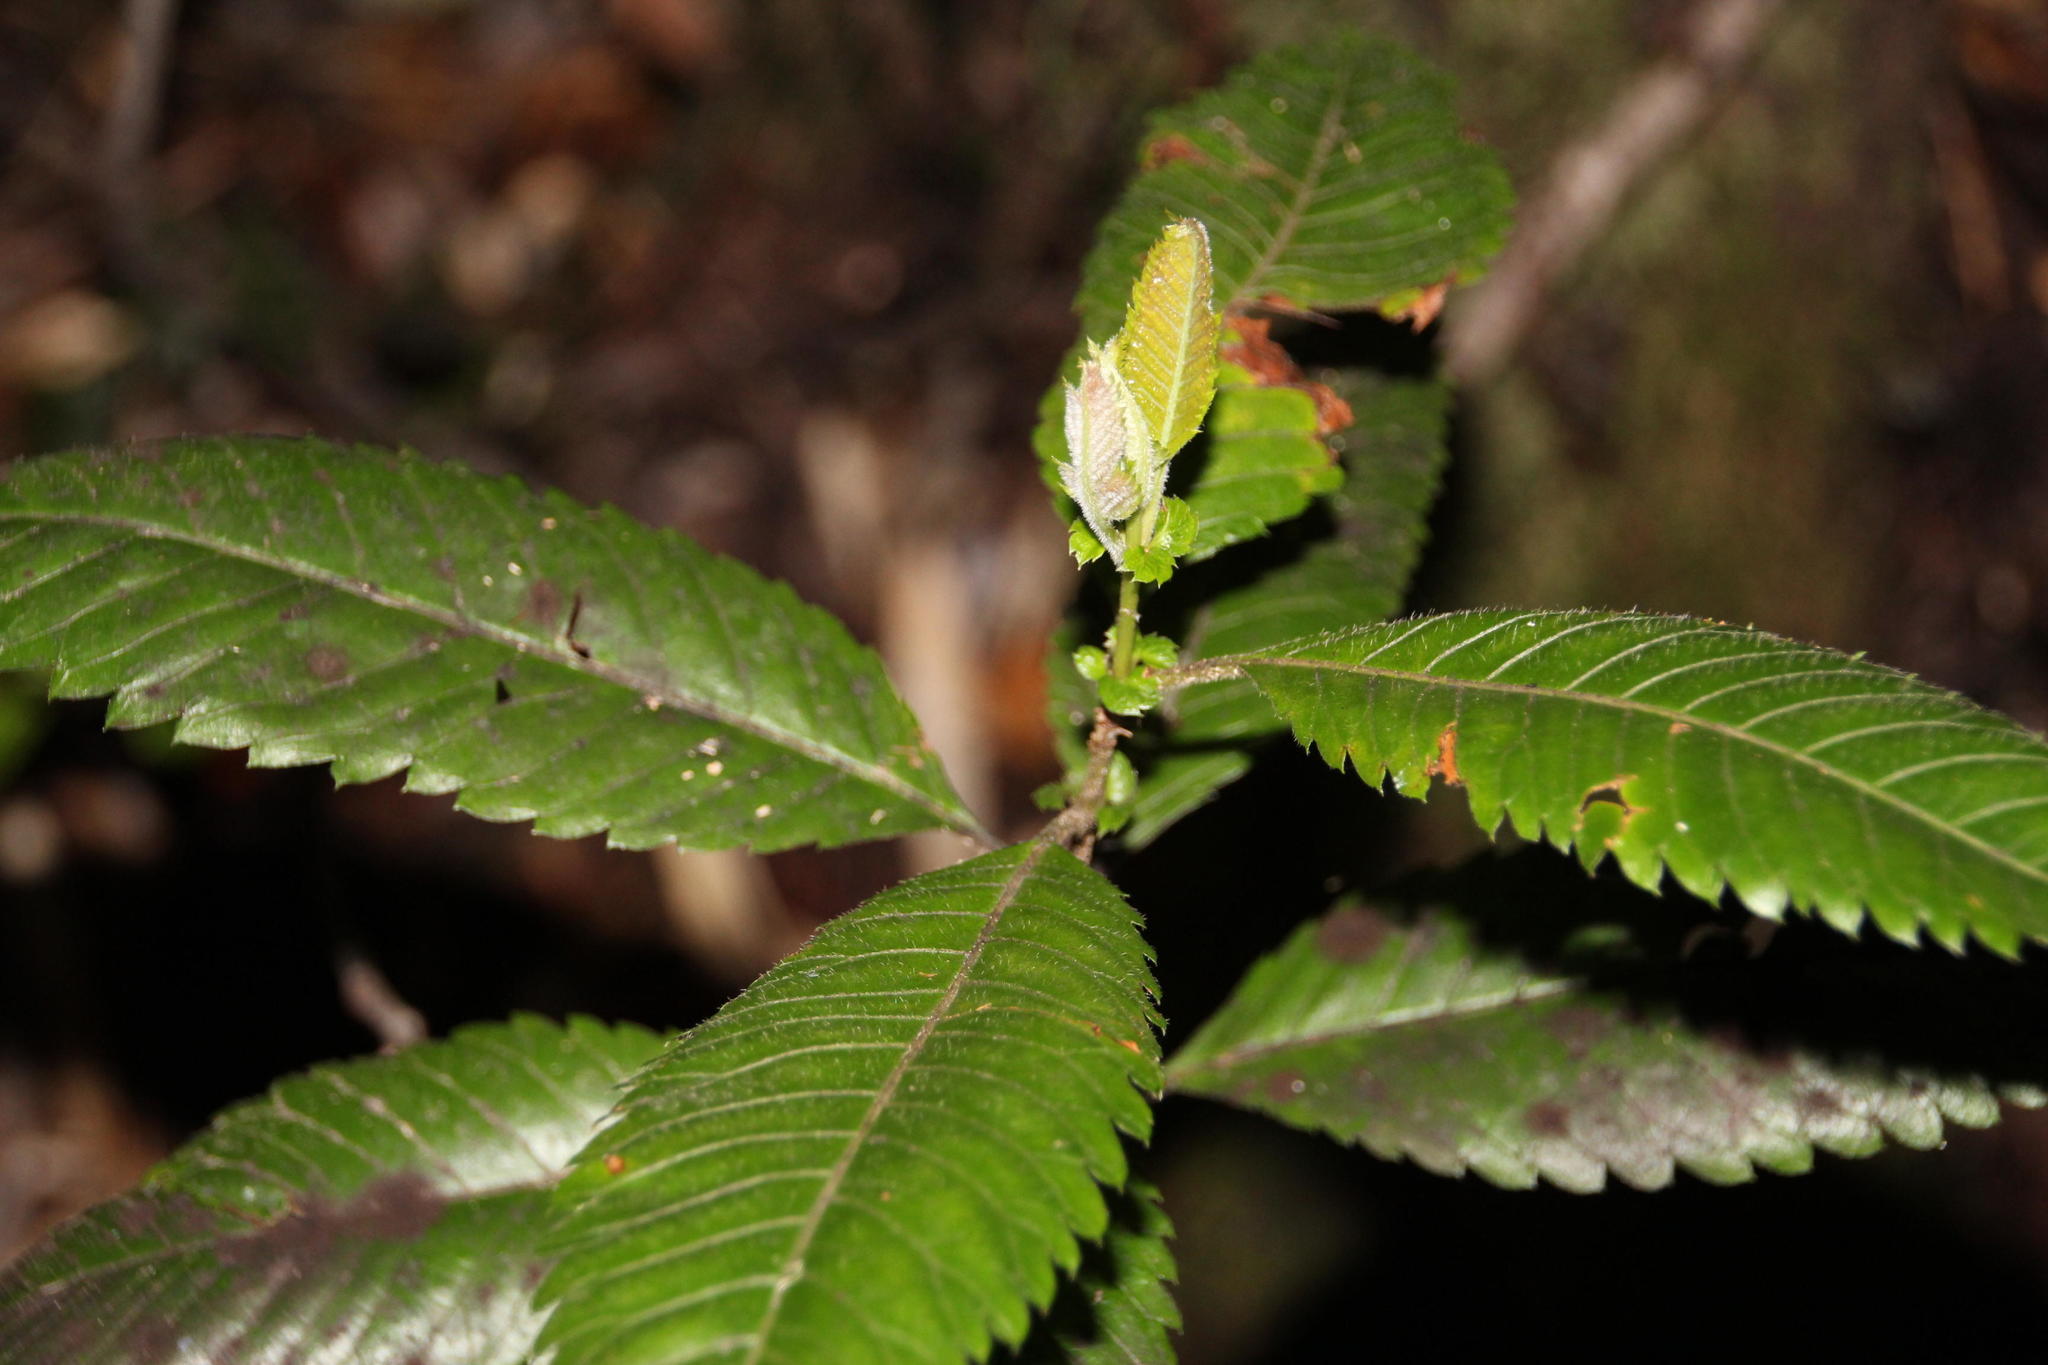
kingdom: Plantae
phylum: Tracheophyta
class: Magnoliopsida
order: Oxalidales
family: Cunoniaceae
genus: Caldcluvia
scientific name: Caldcluvia paniculata
